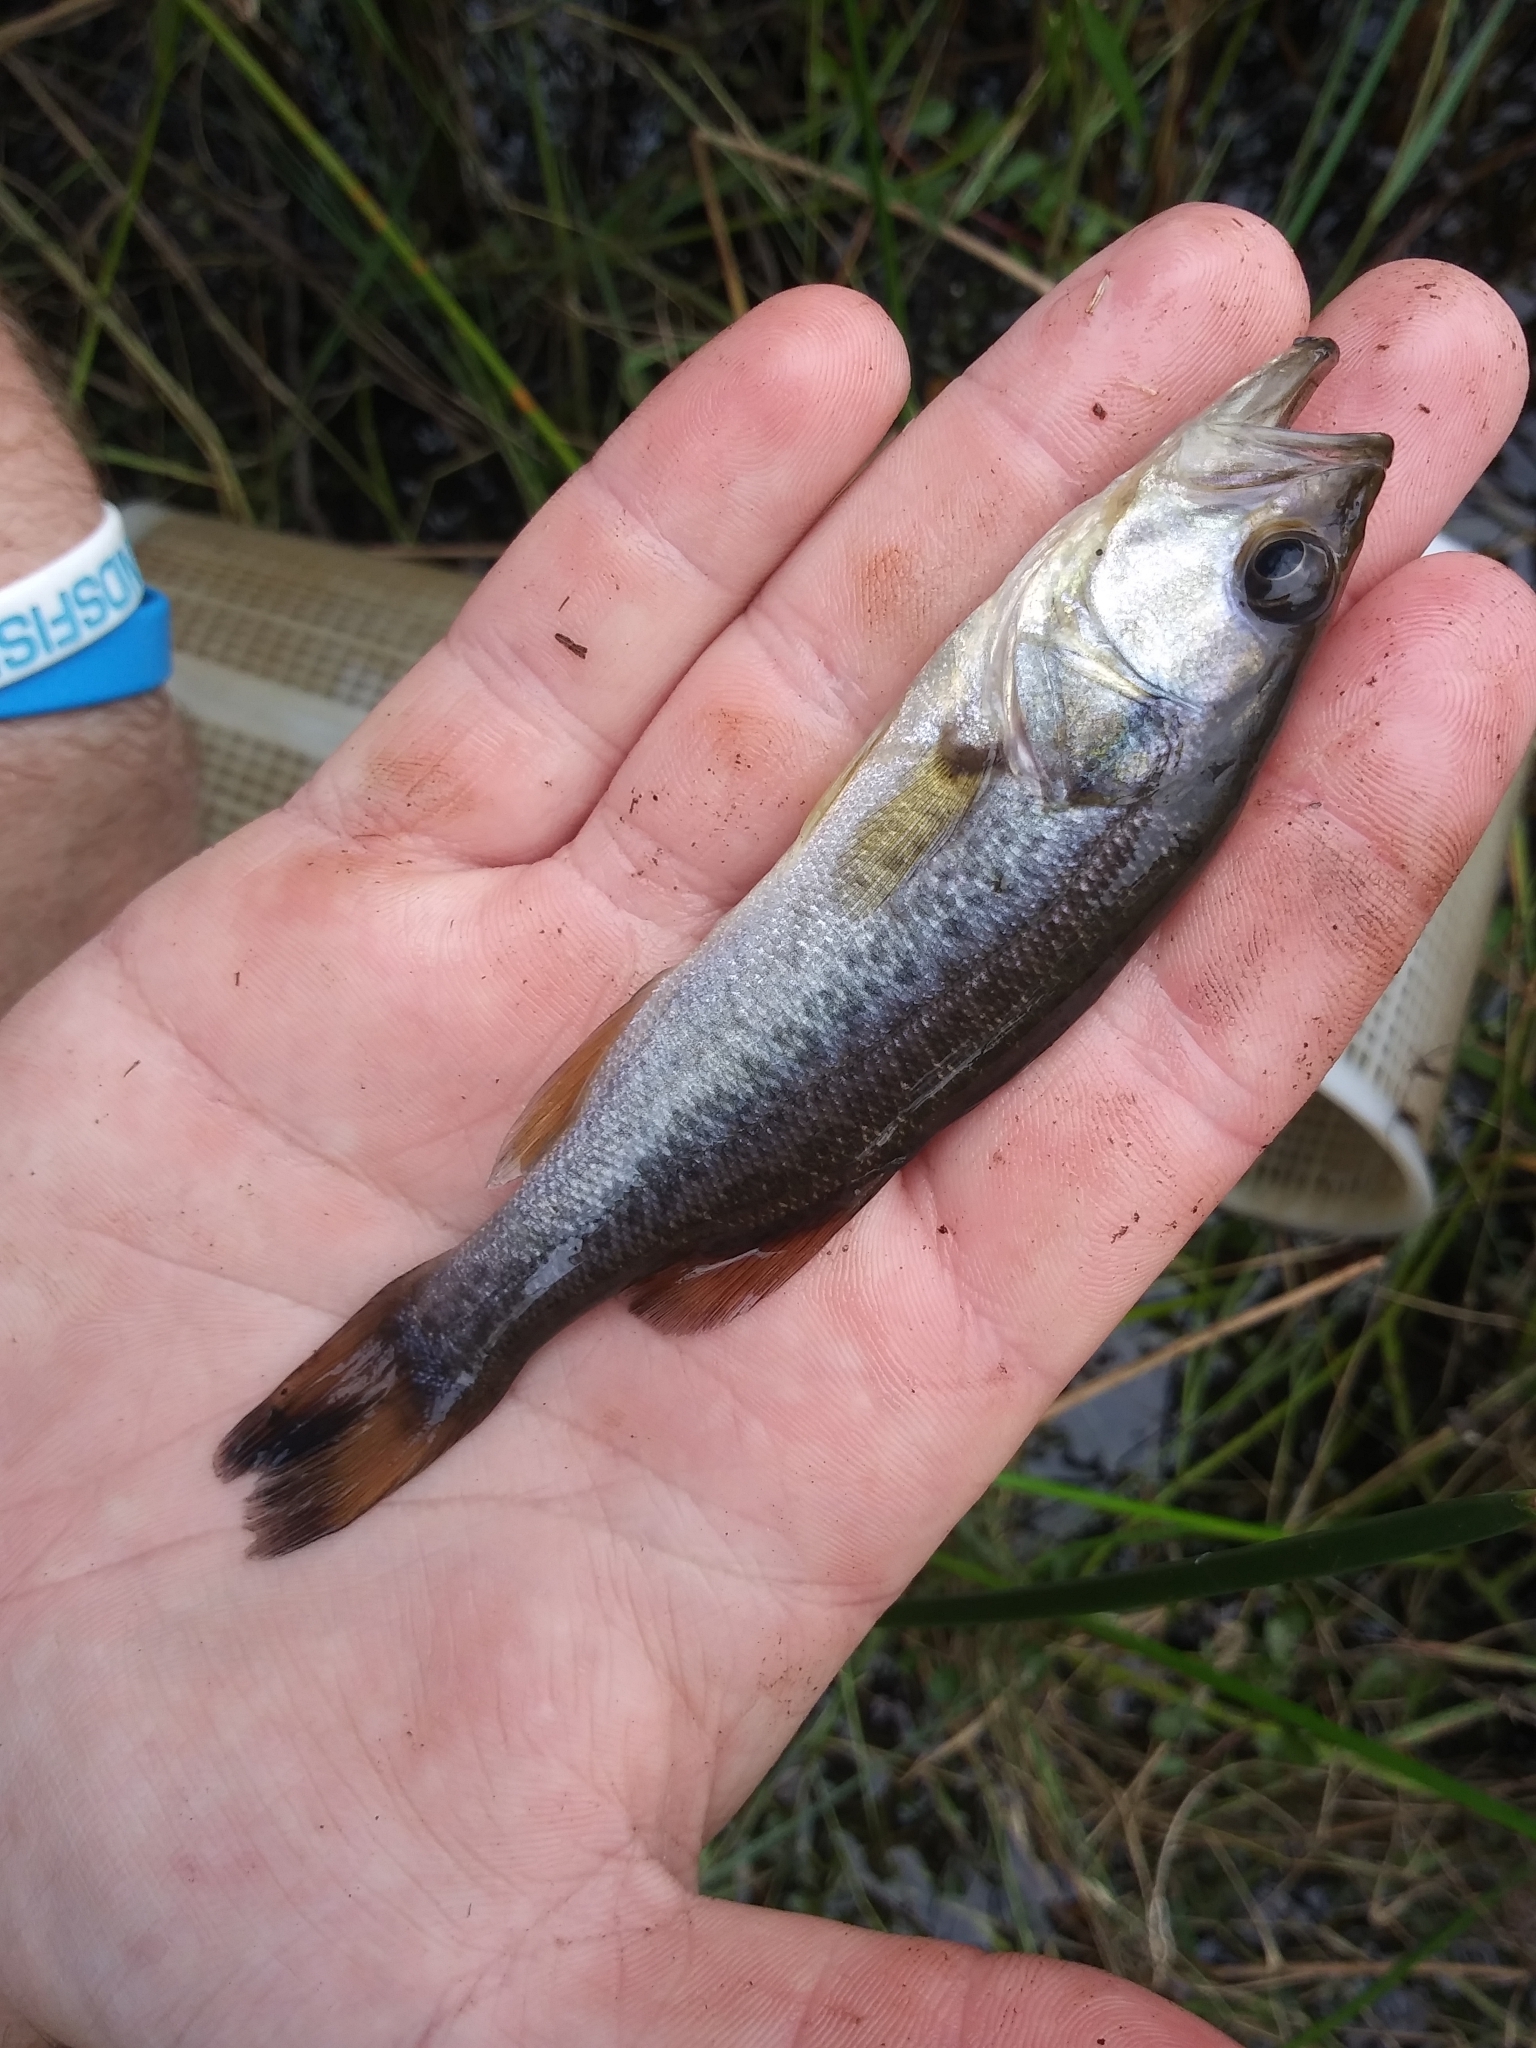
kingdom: Animalia
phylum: Chordata
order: Perciformes
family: Centrarchidae
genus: Micropterus
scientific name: Micropterus salmoides
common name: Largemouth bass
